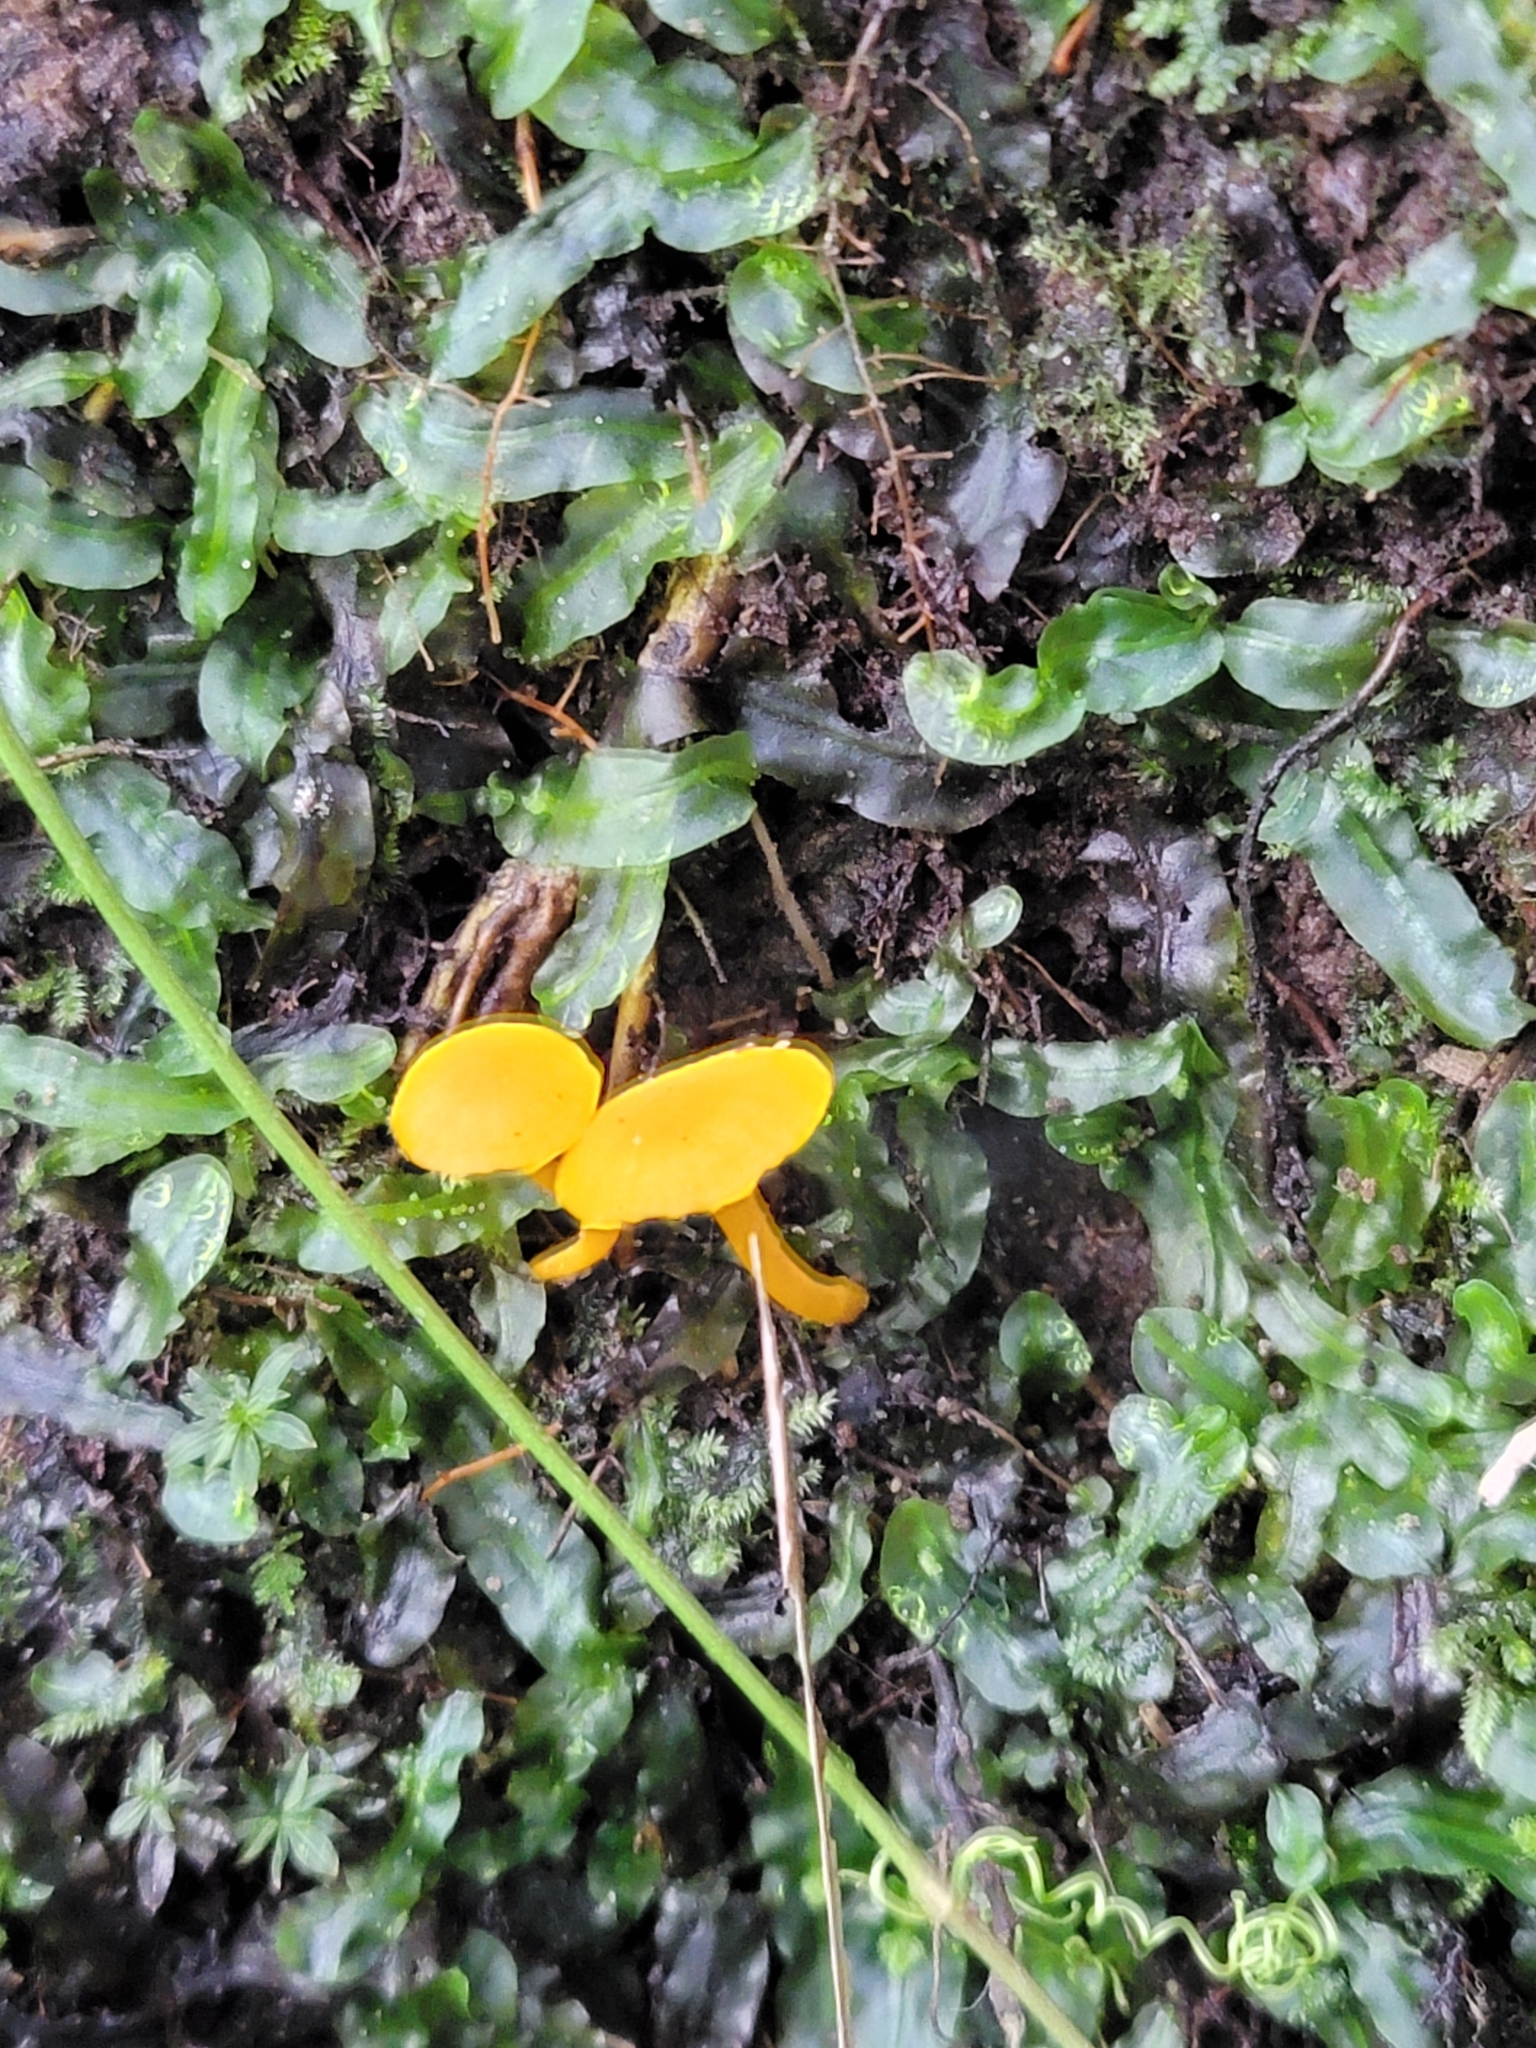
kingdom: Fungi
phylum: Basidiomycota
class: Agaricomycetes
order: Cantharellales
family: Hydnaceae
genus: Cantharellus
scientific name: Cantharellus minor
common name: Small chanterelle
